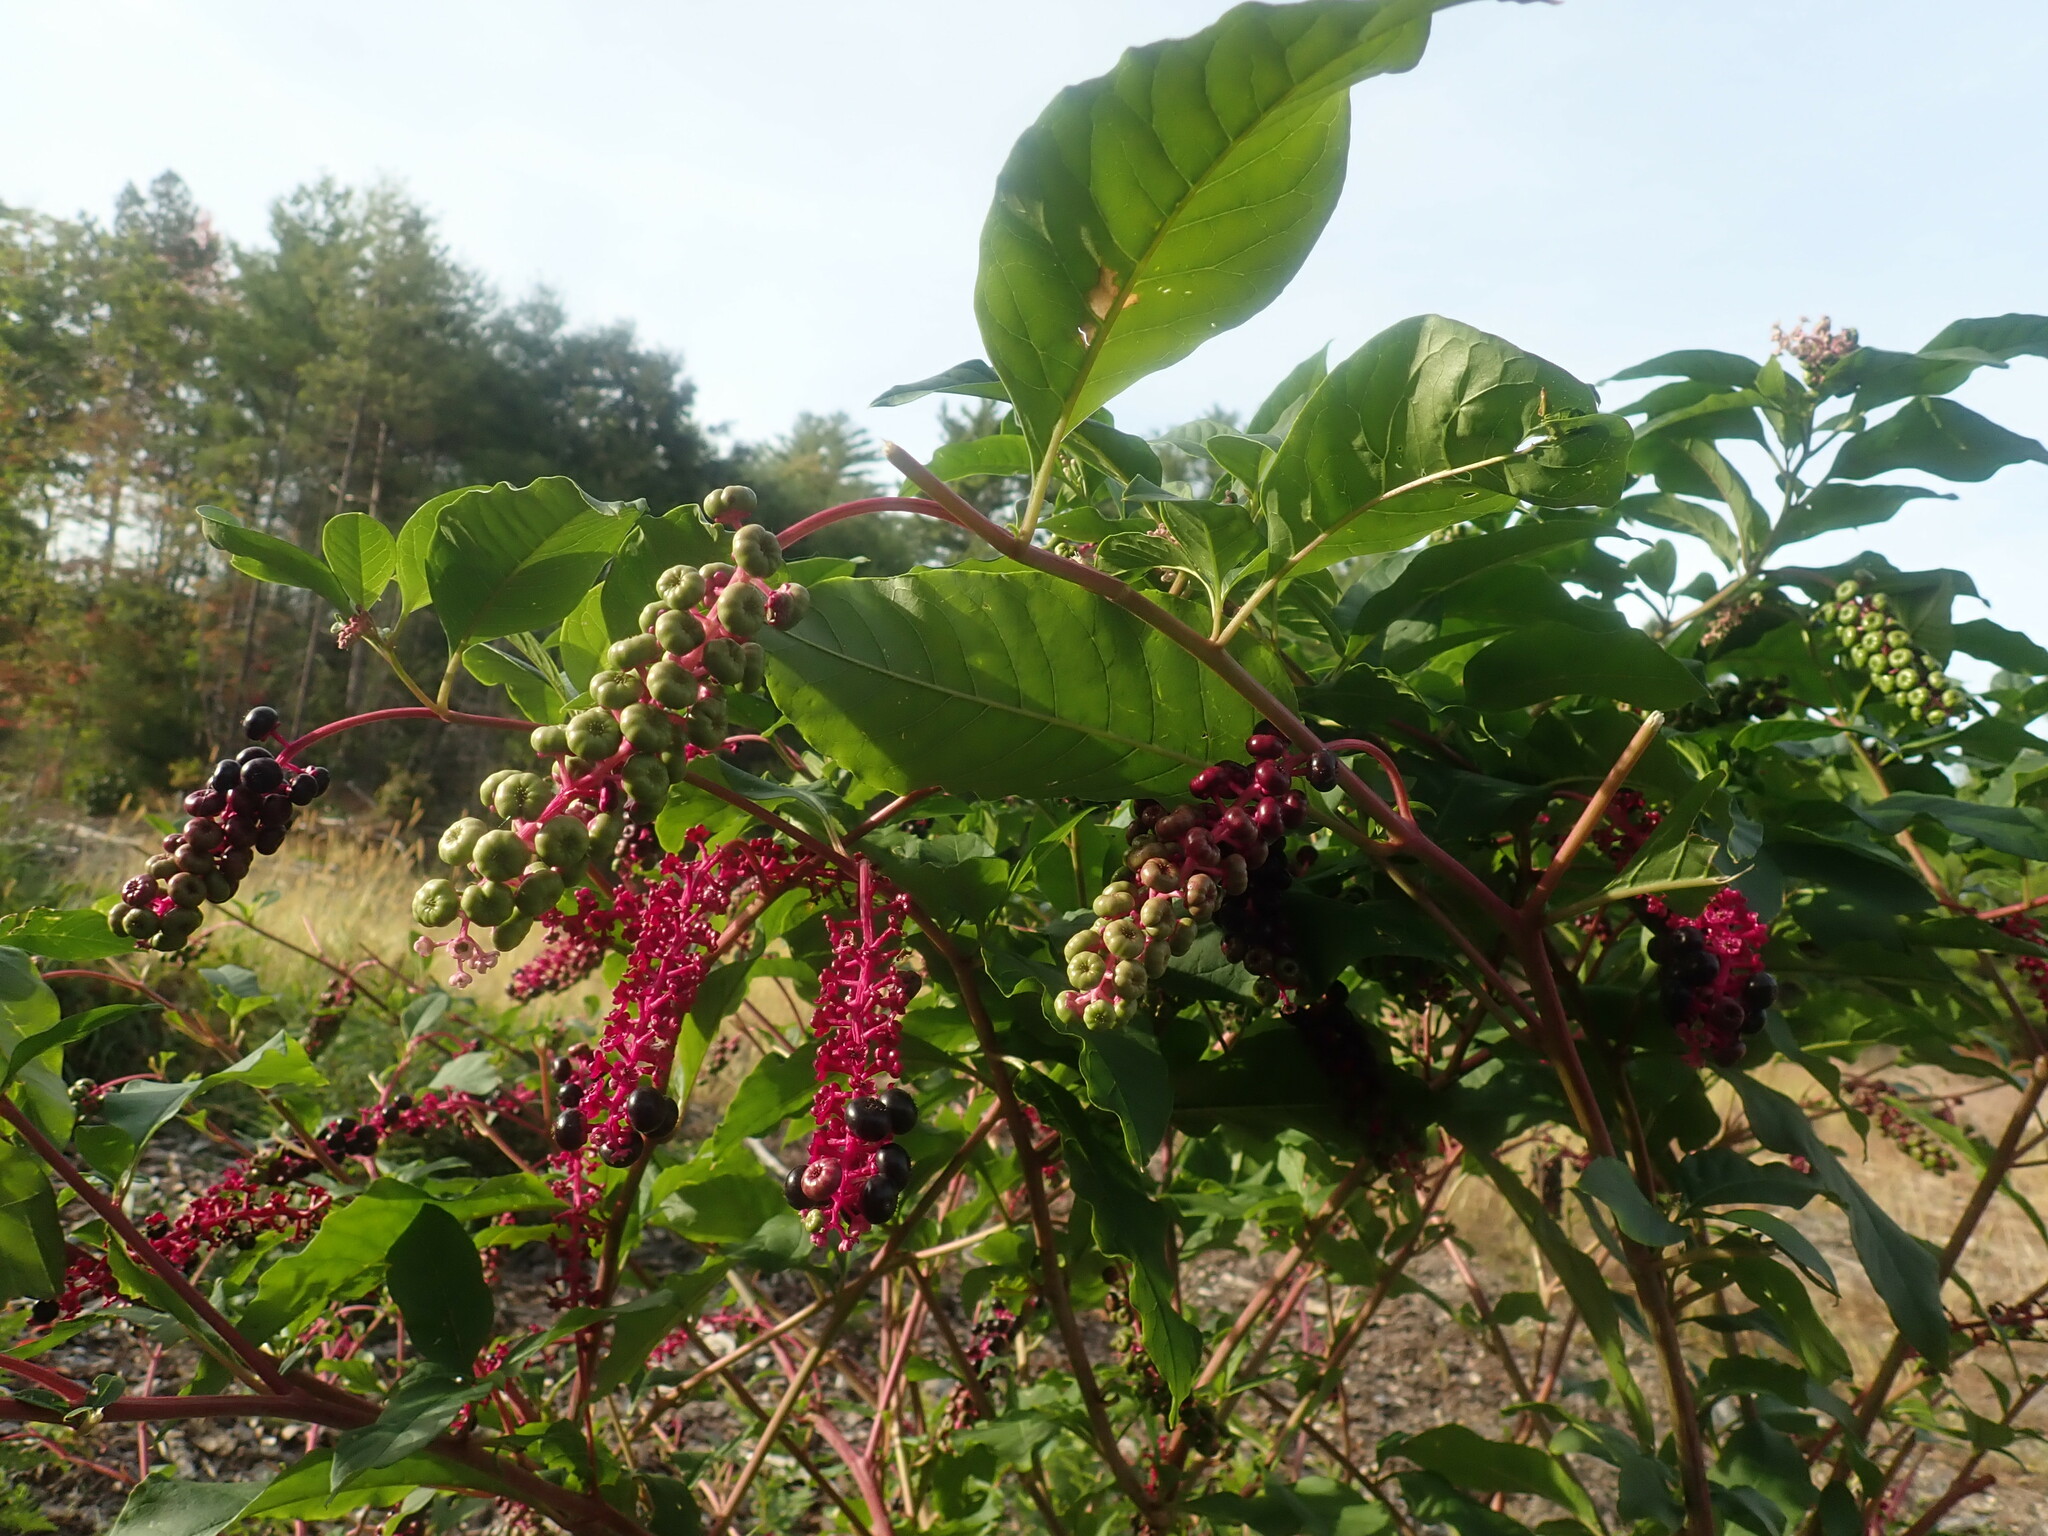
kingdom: Plantae
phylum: Tracheophyta
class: Magnoliopsida
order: Caryophyllales
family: Phytolaccaceae
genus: Phytolacca
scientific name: Phytolacca americana
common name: American pokeweed
